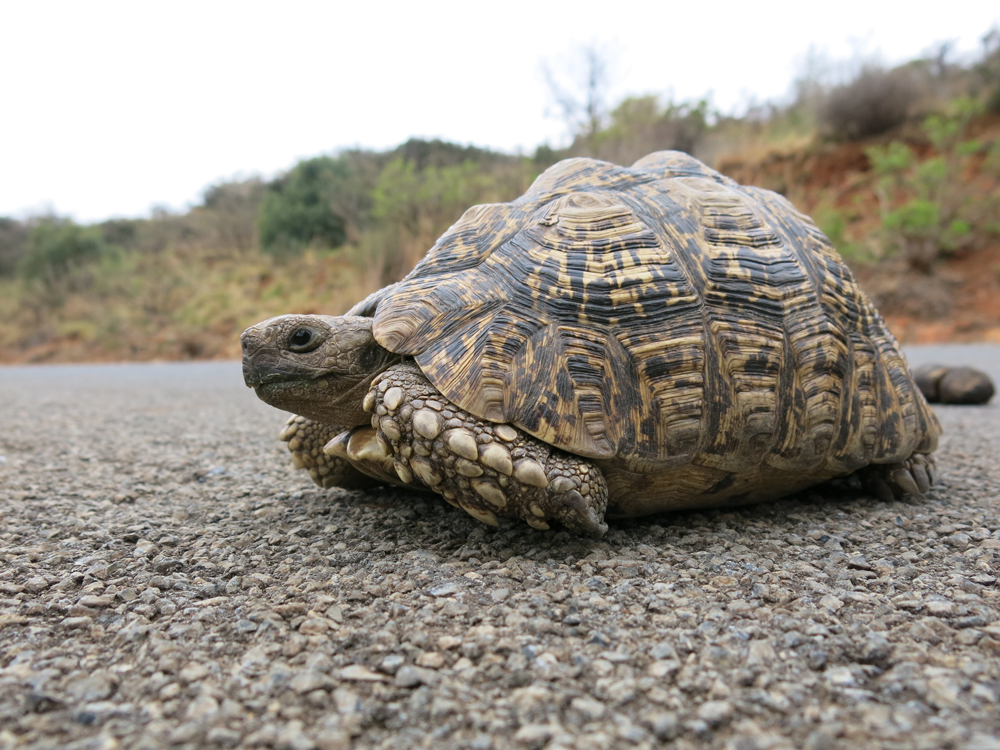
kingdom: Animalia
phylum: Chordata
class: Testudines
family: Testudinidae
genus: Stigmochelys
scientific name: Stigmochelys pardalis
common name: Leopard tortoise
